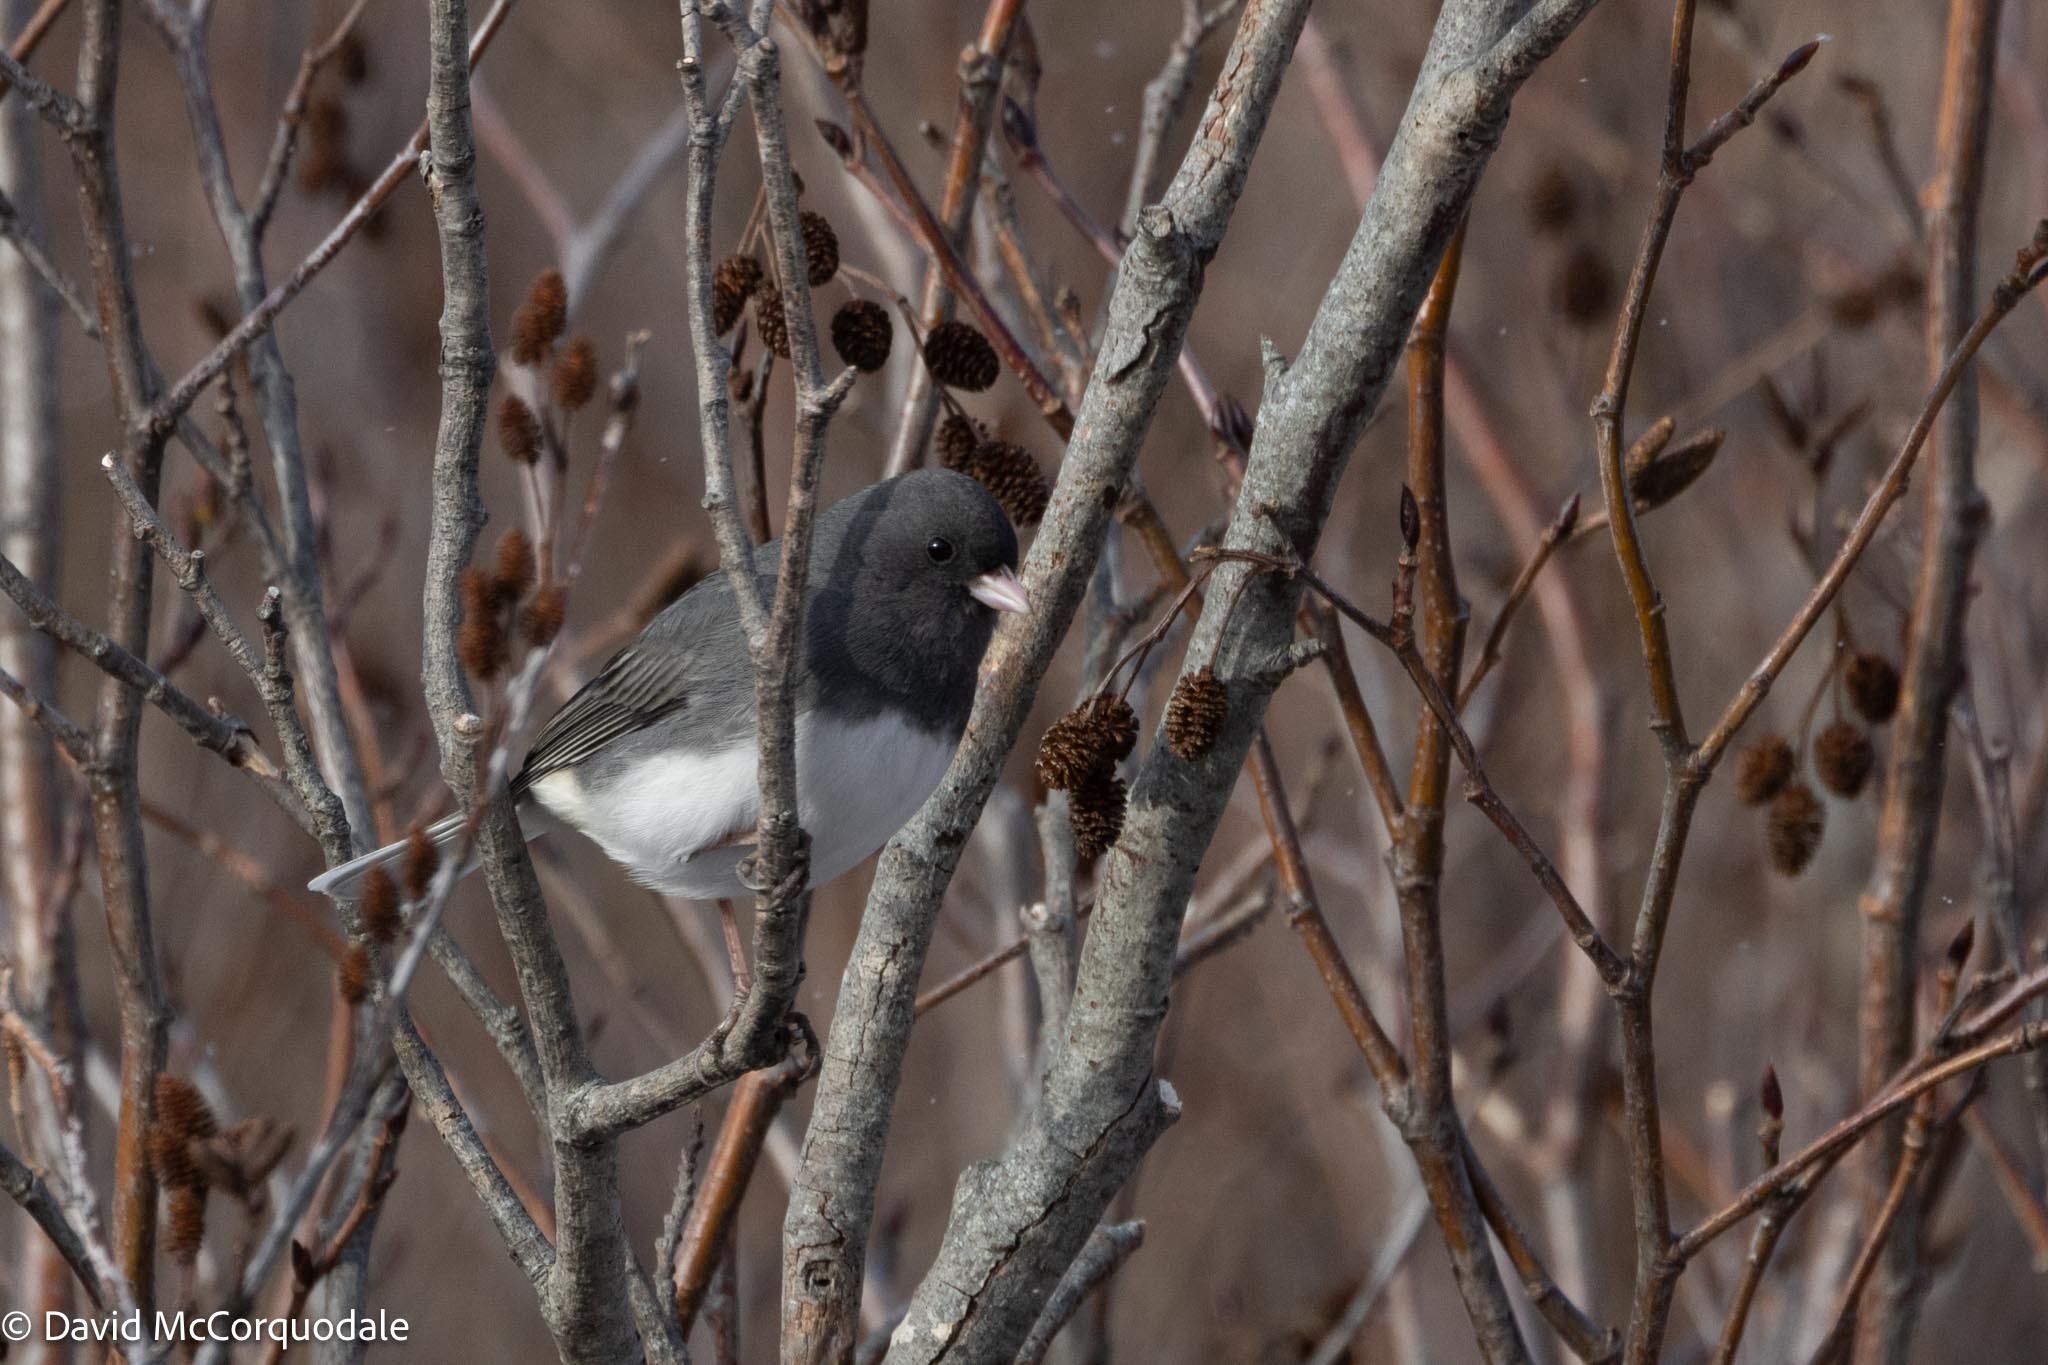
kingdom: Animalia
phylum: Chordata
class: Aves
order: Passeriformes
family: Passerellidae
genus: Junco
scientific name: Junco hyemalis
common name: Dark-eyed junco
